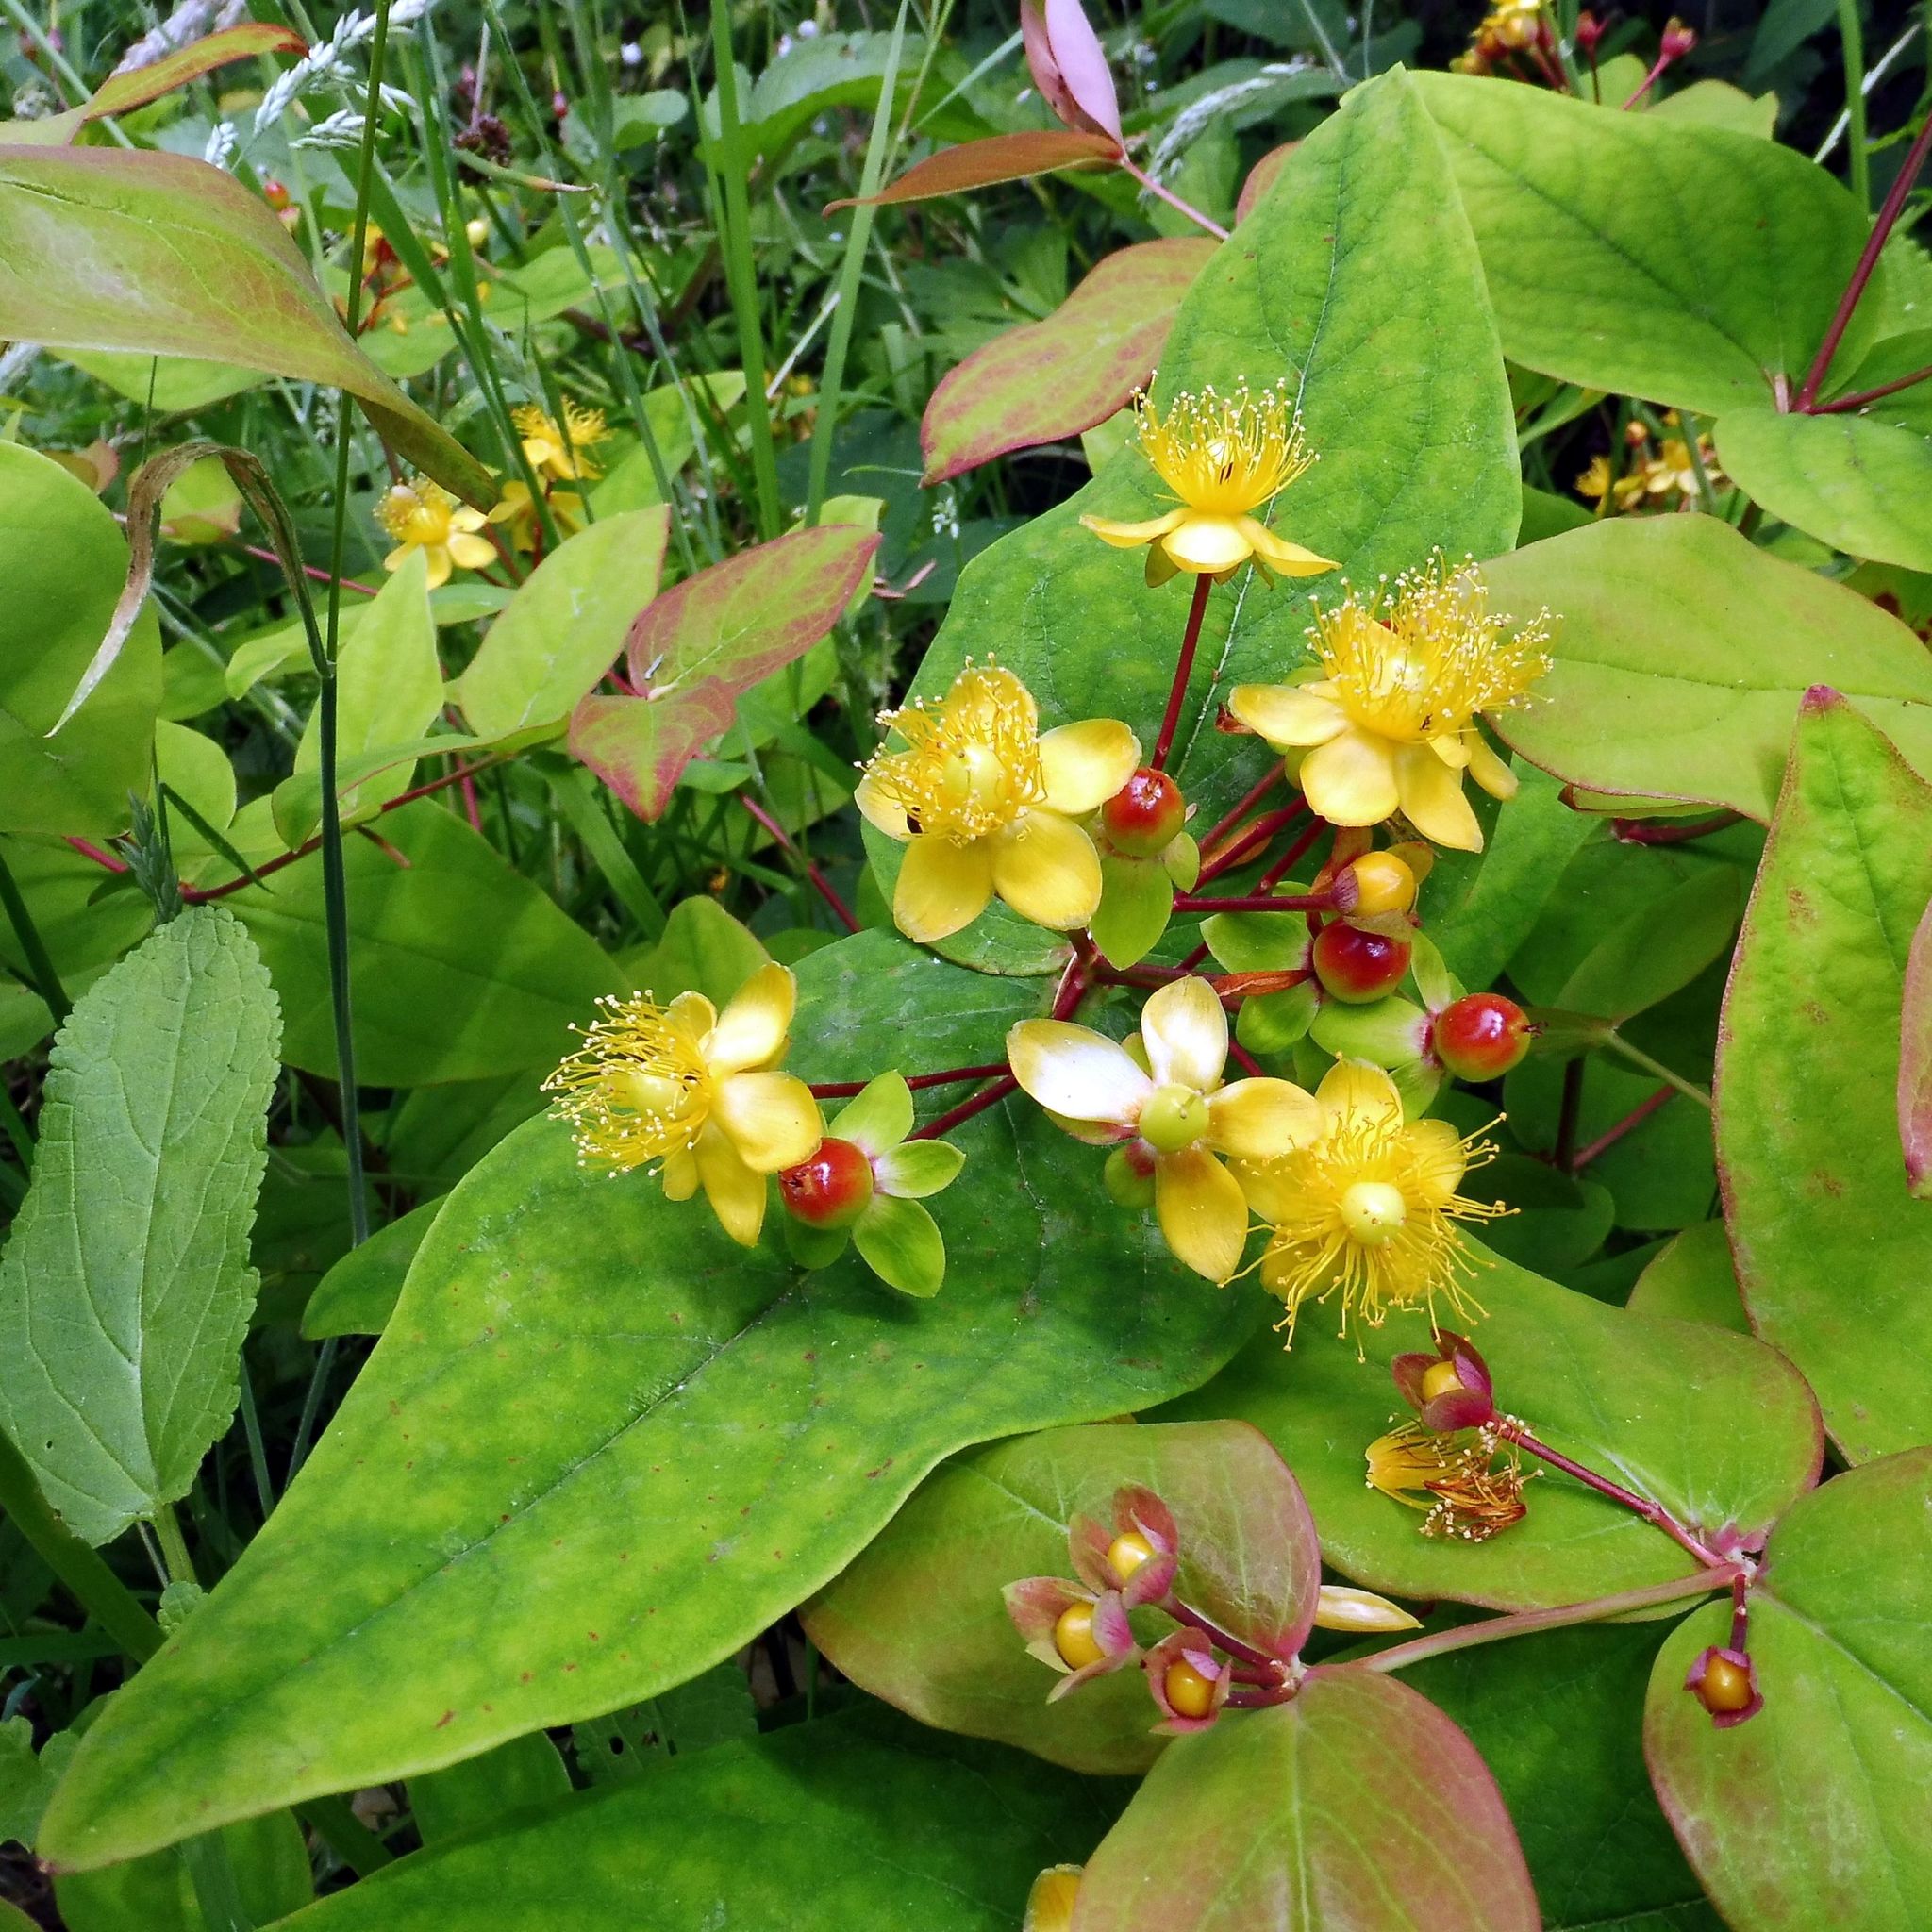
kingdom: Plantae
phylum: Tracheophyta
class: Magnoliopsida
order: Malpighiales
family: Hypericaceae
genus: Hypericum
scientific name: Hypericum androsaemum
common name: Sweet-amber
